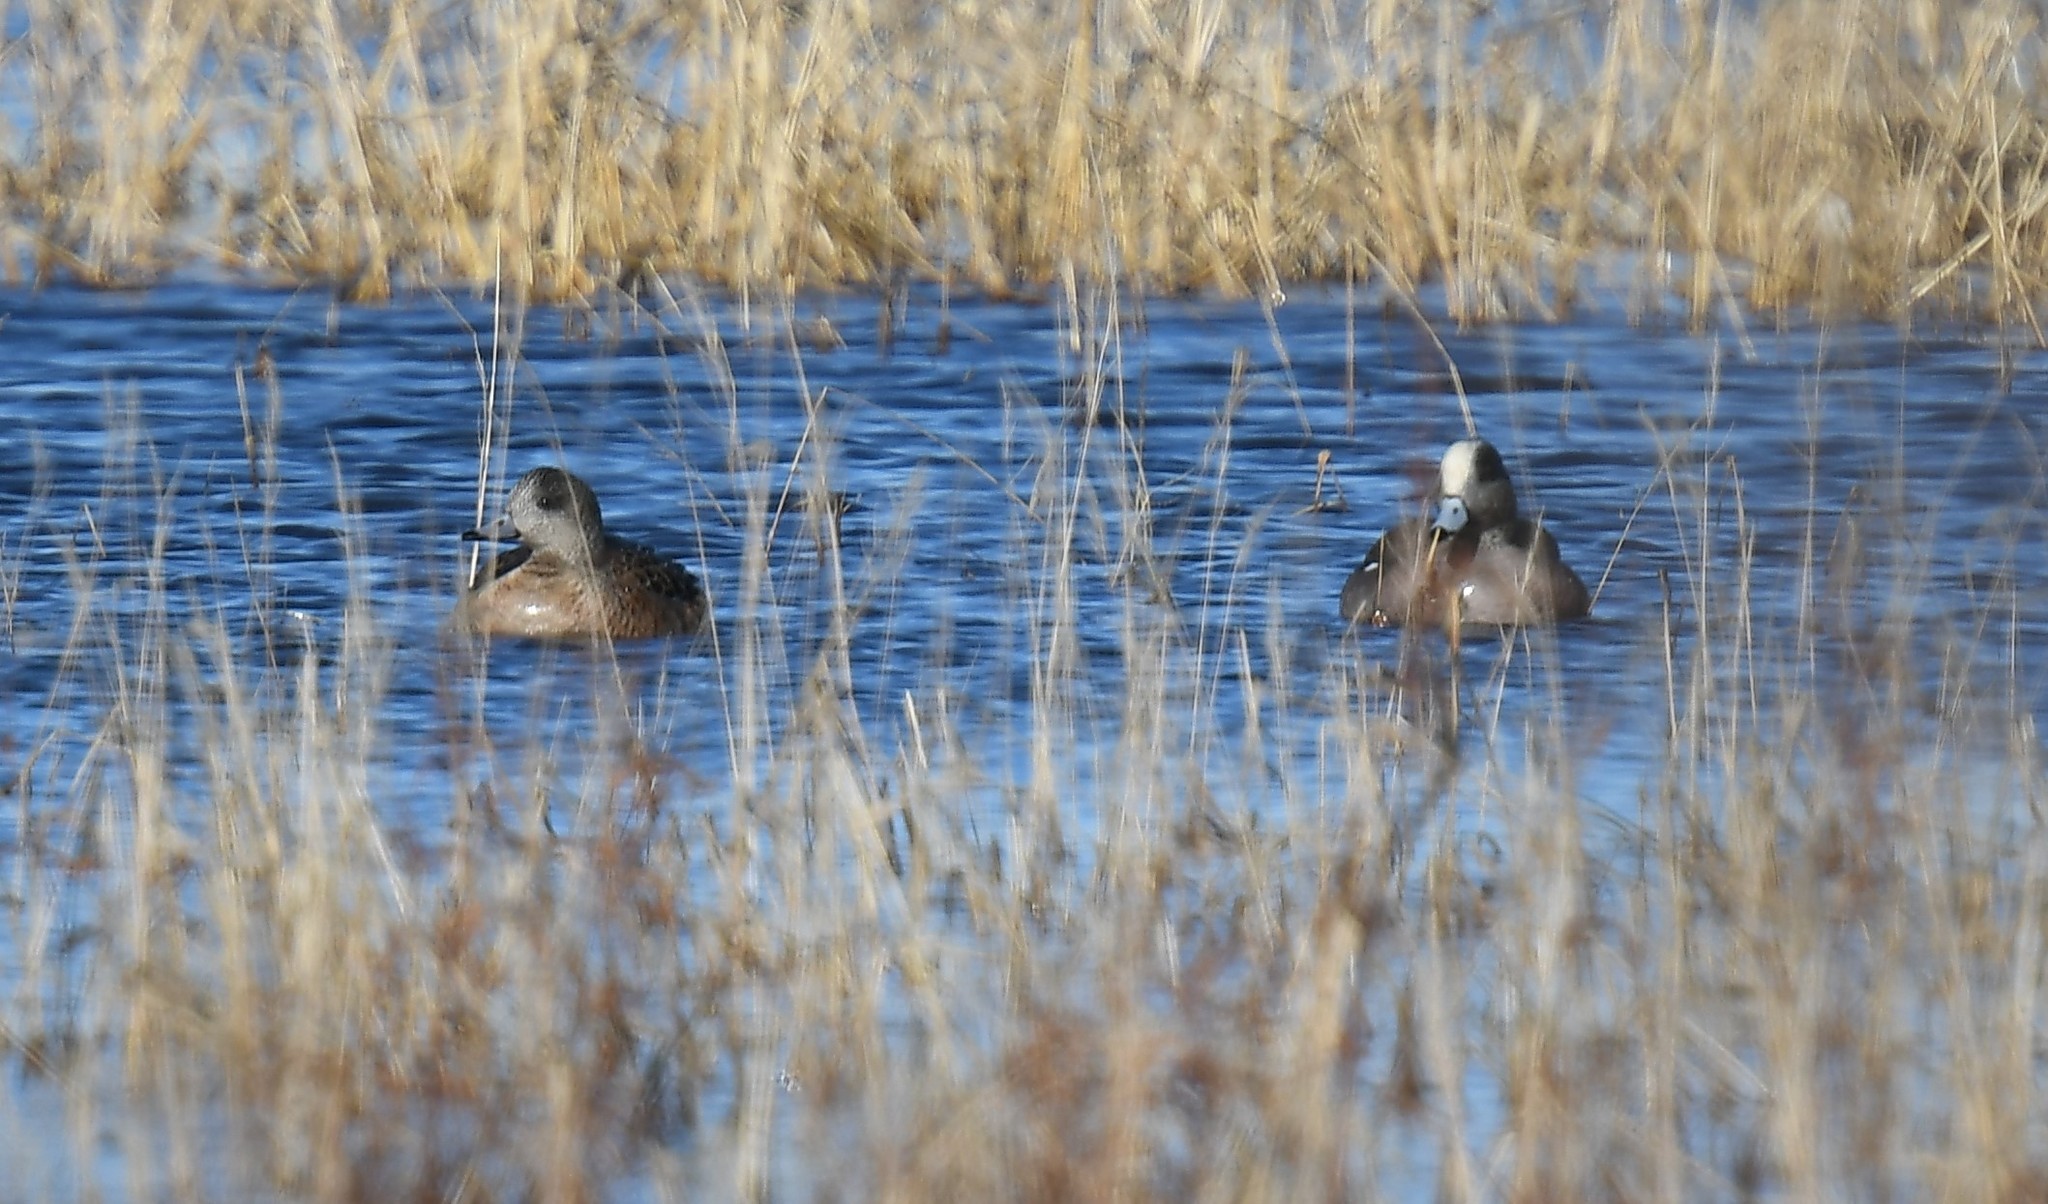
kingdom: Animalia
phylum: Chordata
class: Aves
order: Anseriformes
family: Anatidae
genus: Mareca
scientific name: Mareca americana
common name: American wigeon
